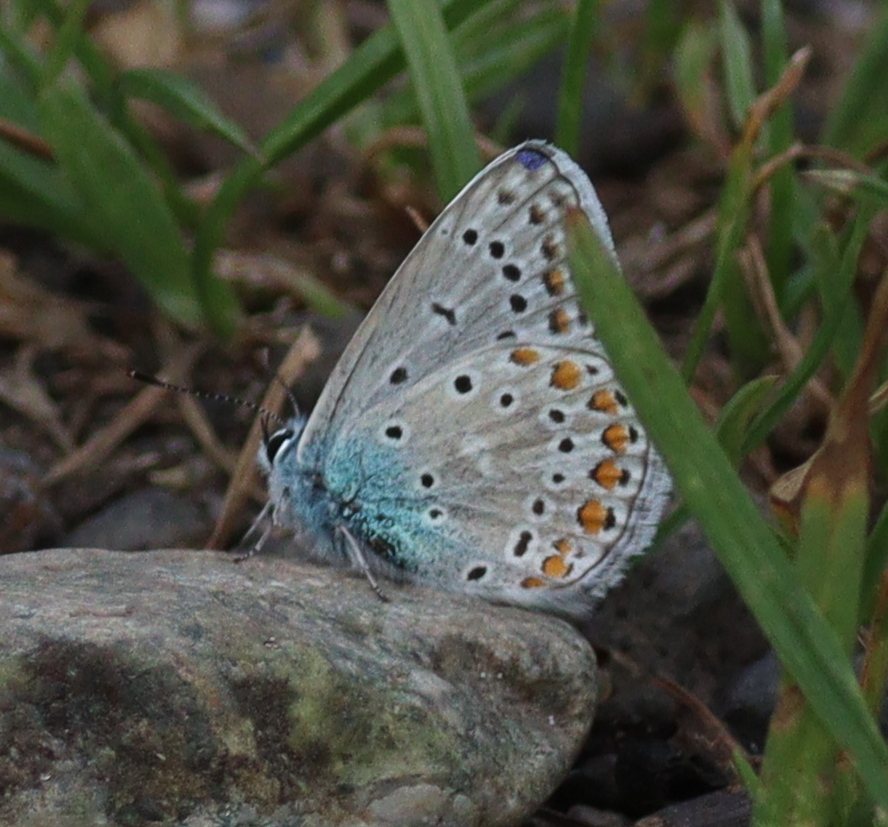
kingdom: Animalia
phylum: Arthropoda
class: Insecta
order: Lepidoptera
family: Lycaenidae
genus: Polyommatus
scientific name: Polyommatus icarus
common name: Common blue
